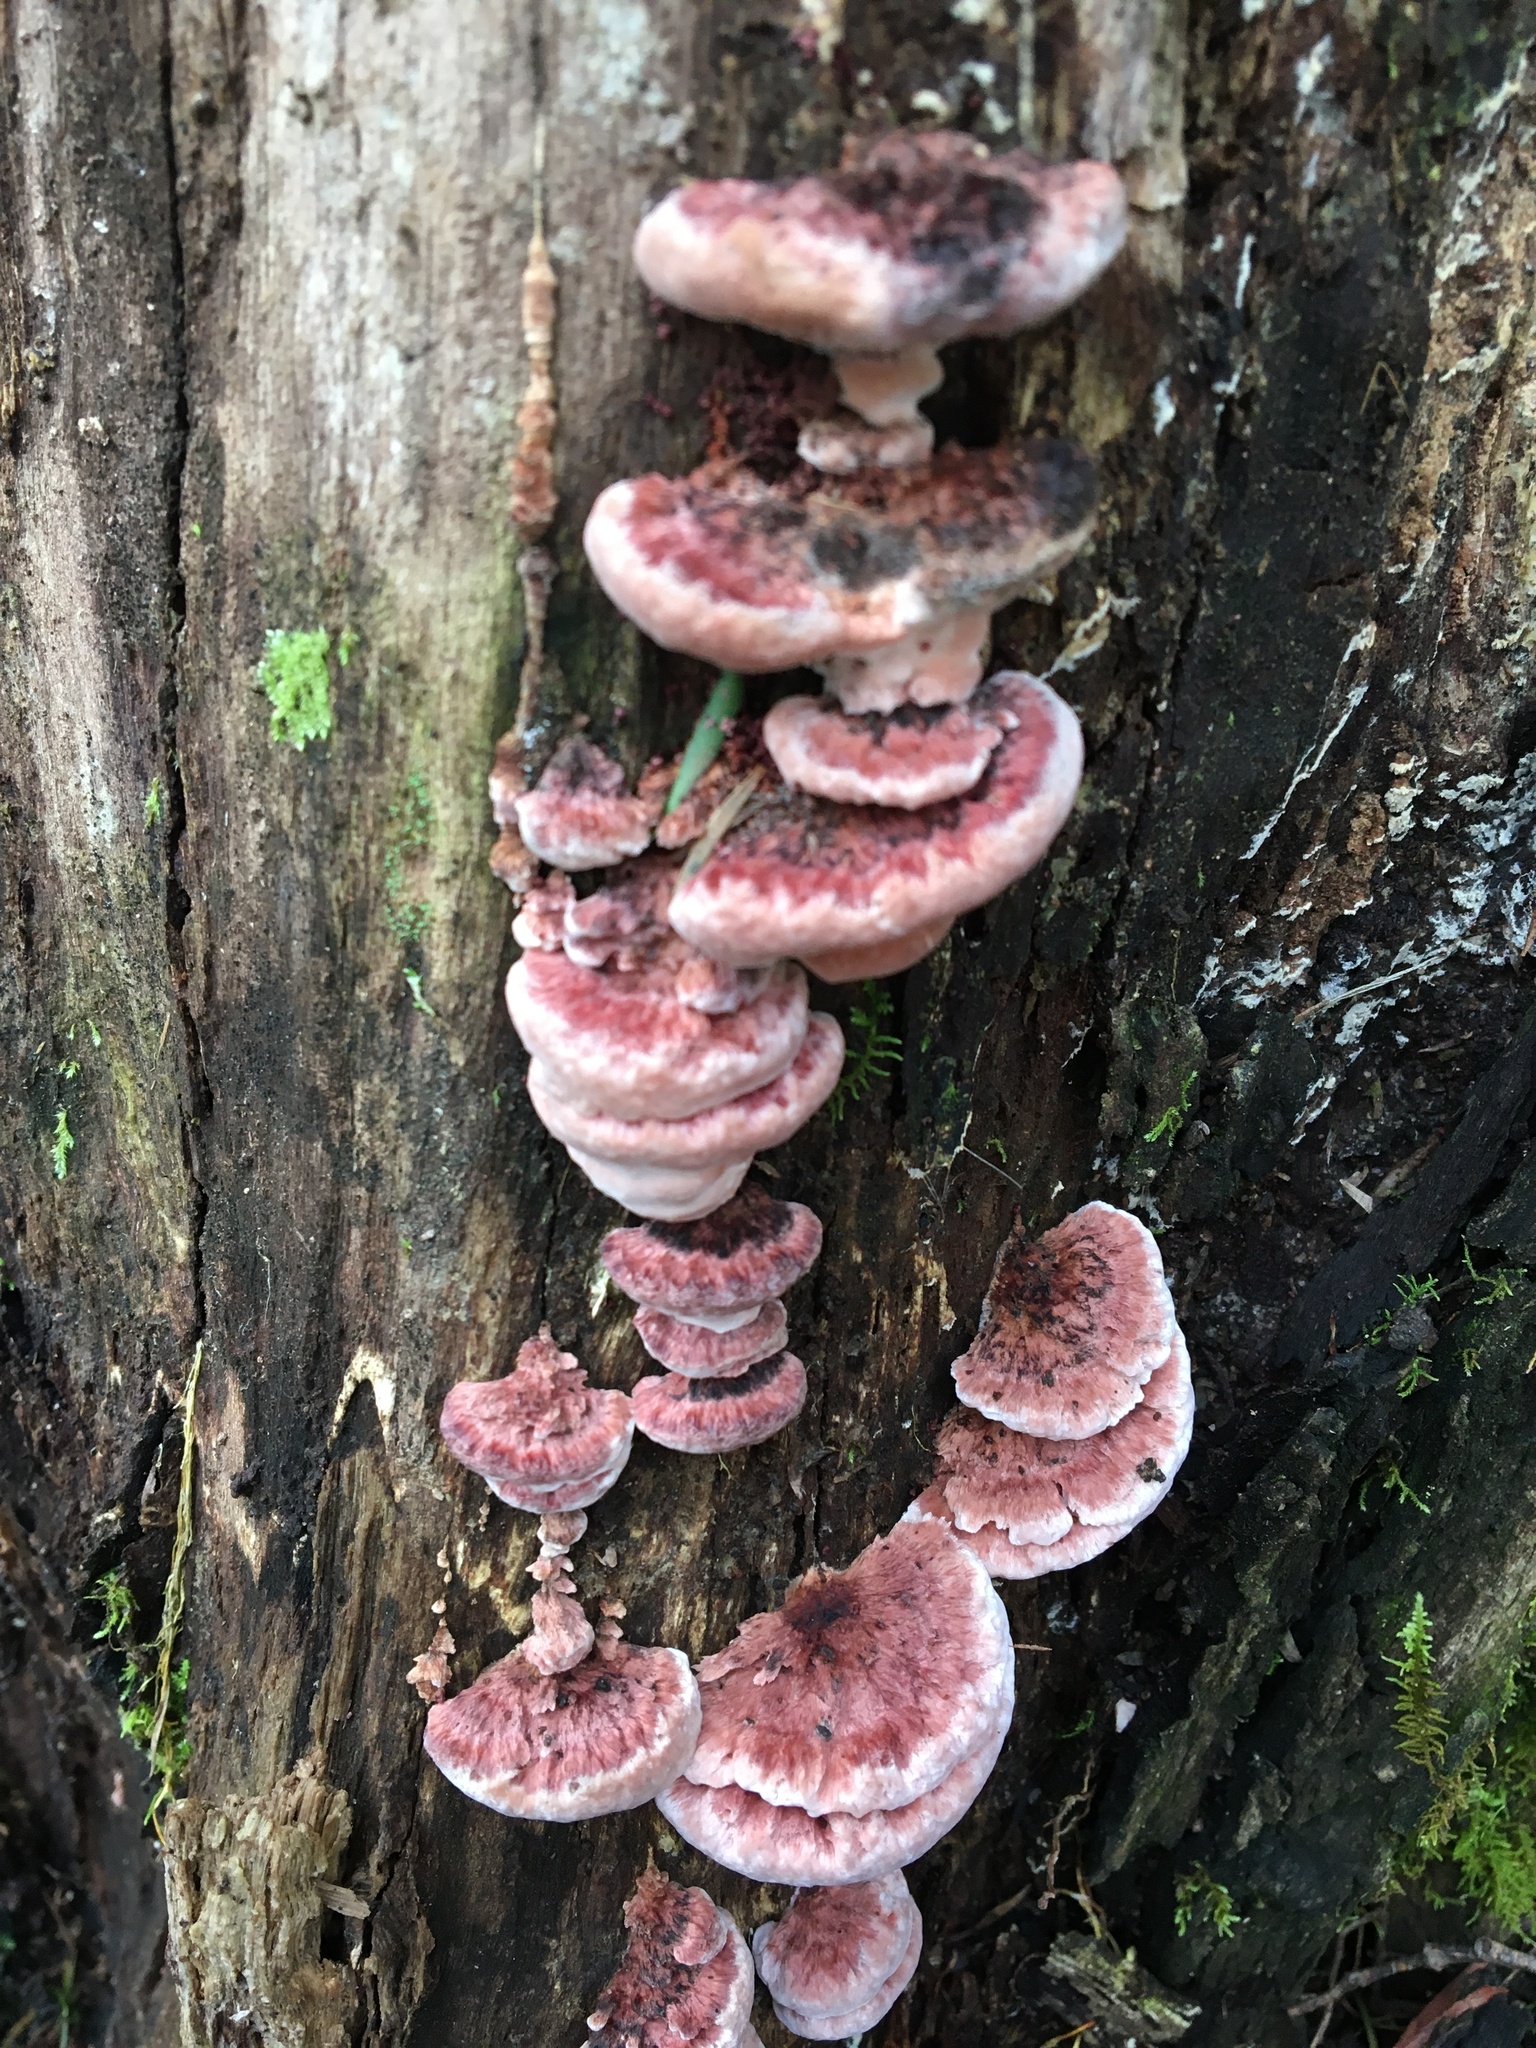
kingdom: Fungi
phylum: Basidiomycota
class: Agaricomycetes
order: Polyporales
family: Fomitopsidaceae
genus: Rhodofomitopsis
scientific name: Rhodofomitopsis lilacinogilva
